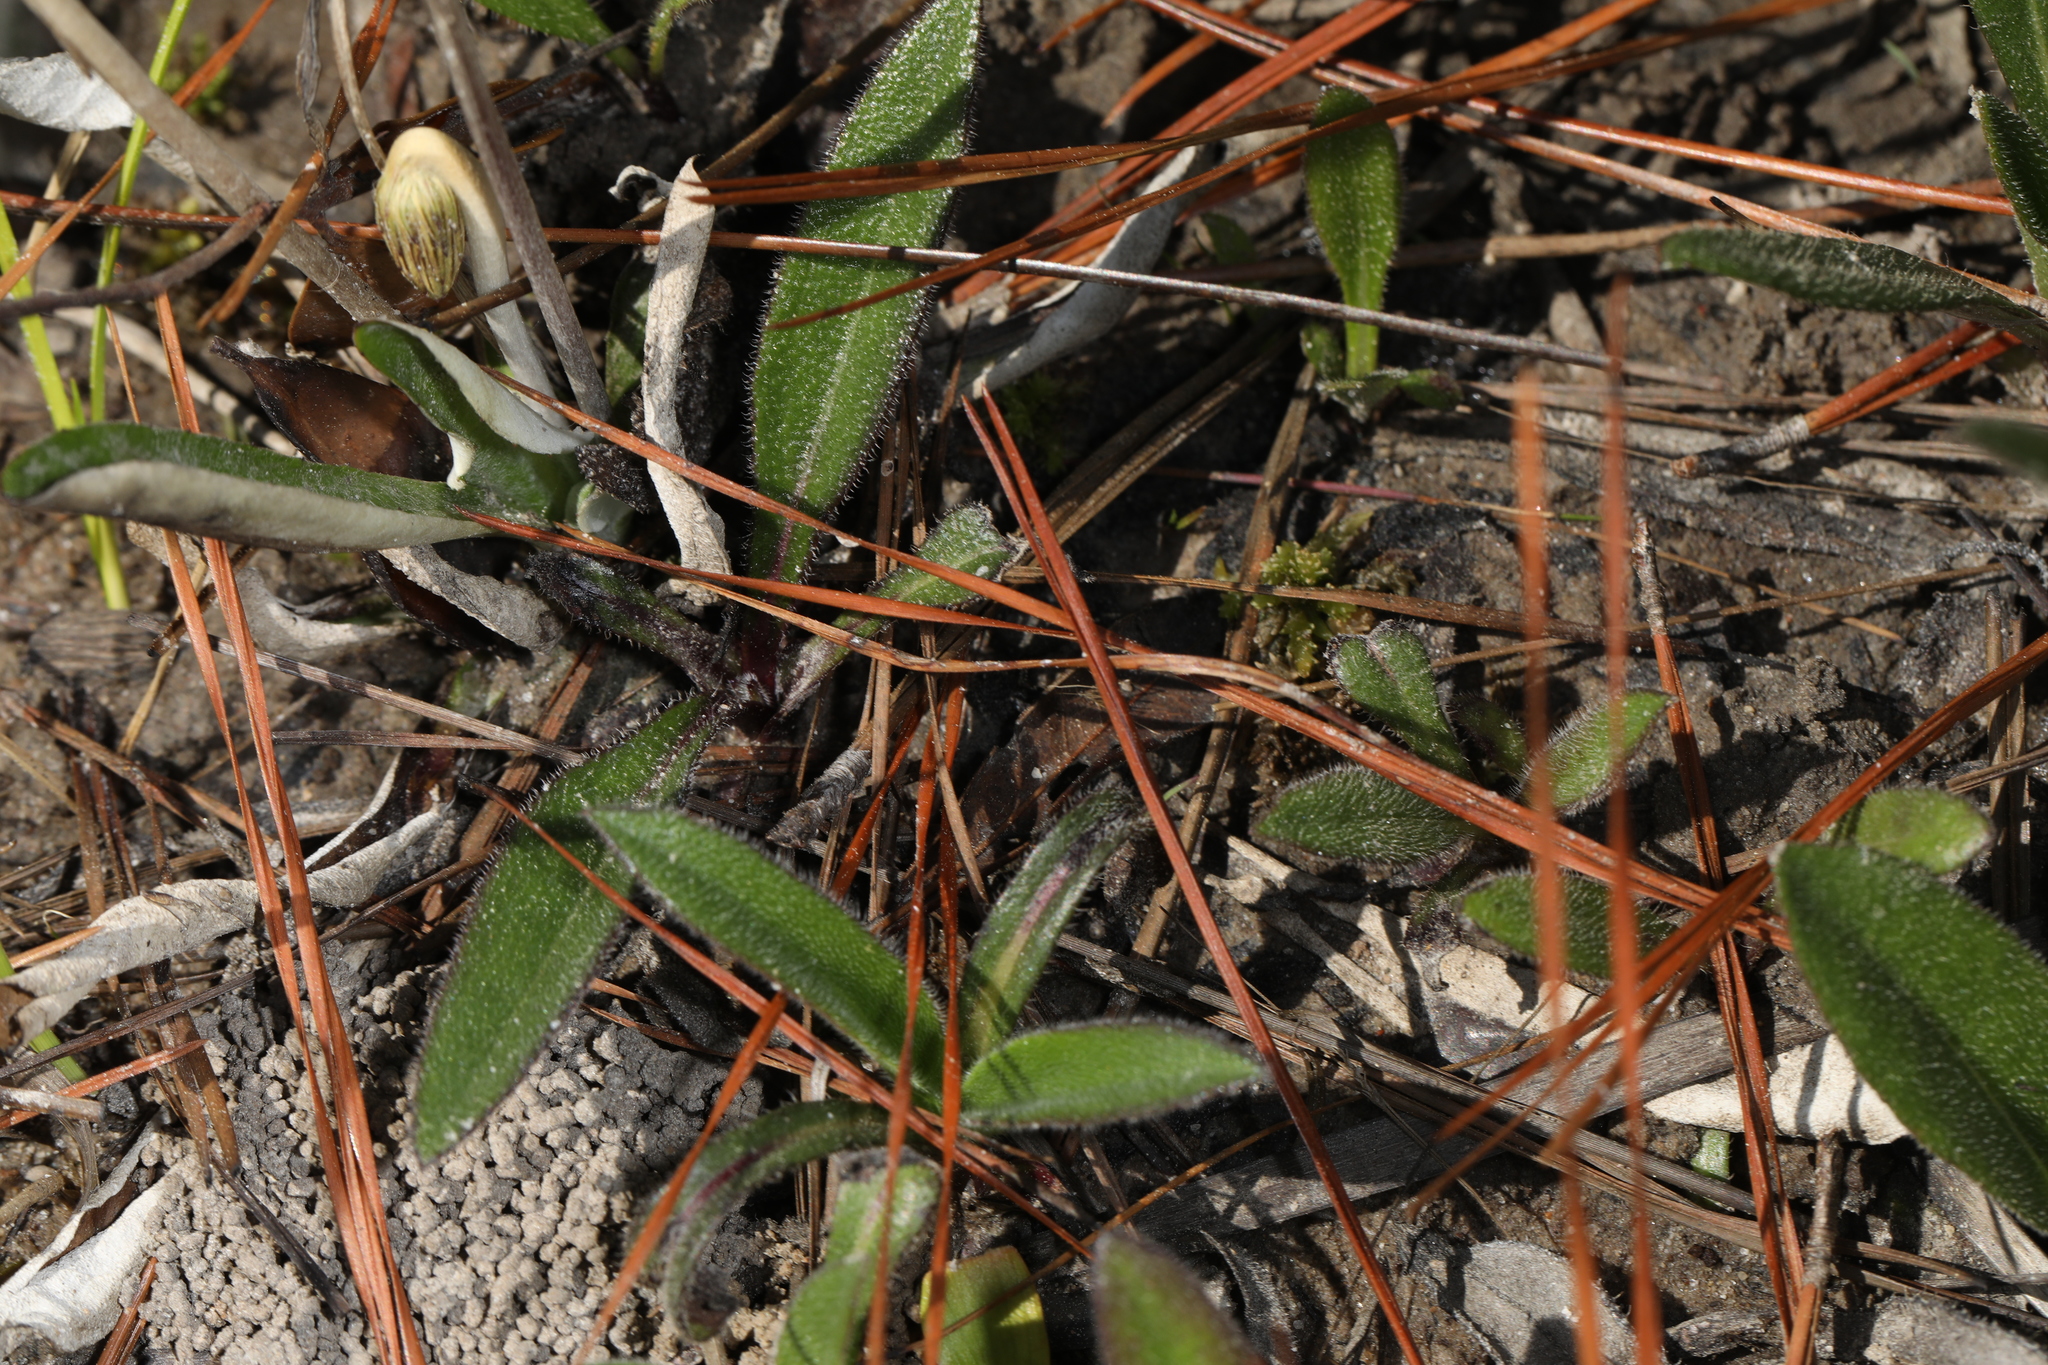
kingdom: Plantae
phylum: Tracheophyta
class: Magnoliopsida
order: Asterales
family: Asteraceae
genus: Chaptalia
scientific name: Chaptalia tomentosa
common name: Woolly sunbonnet
